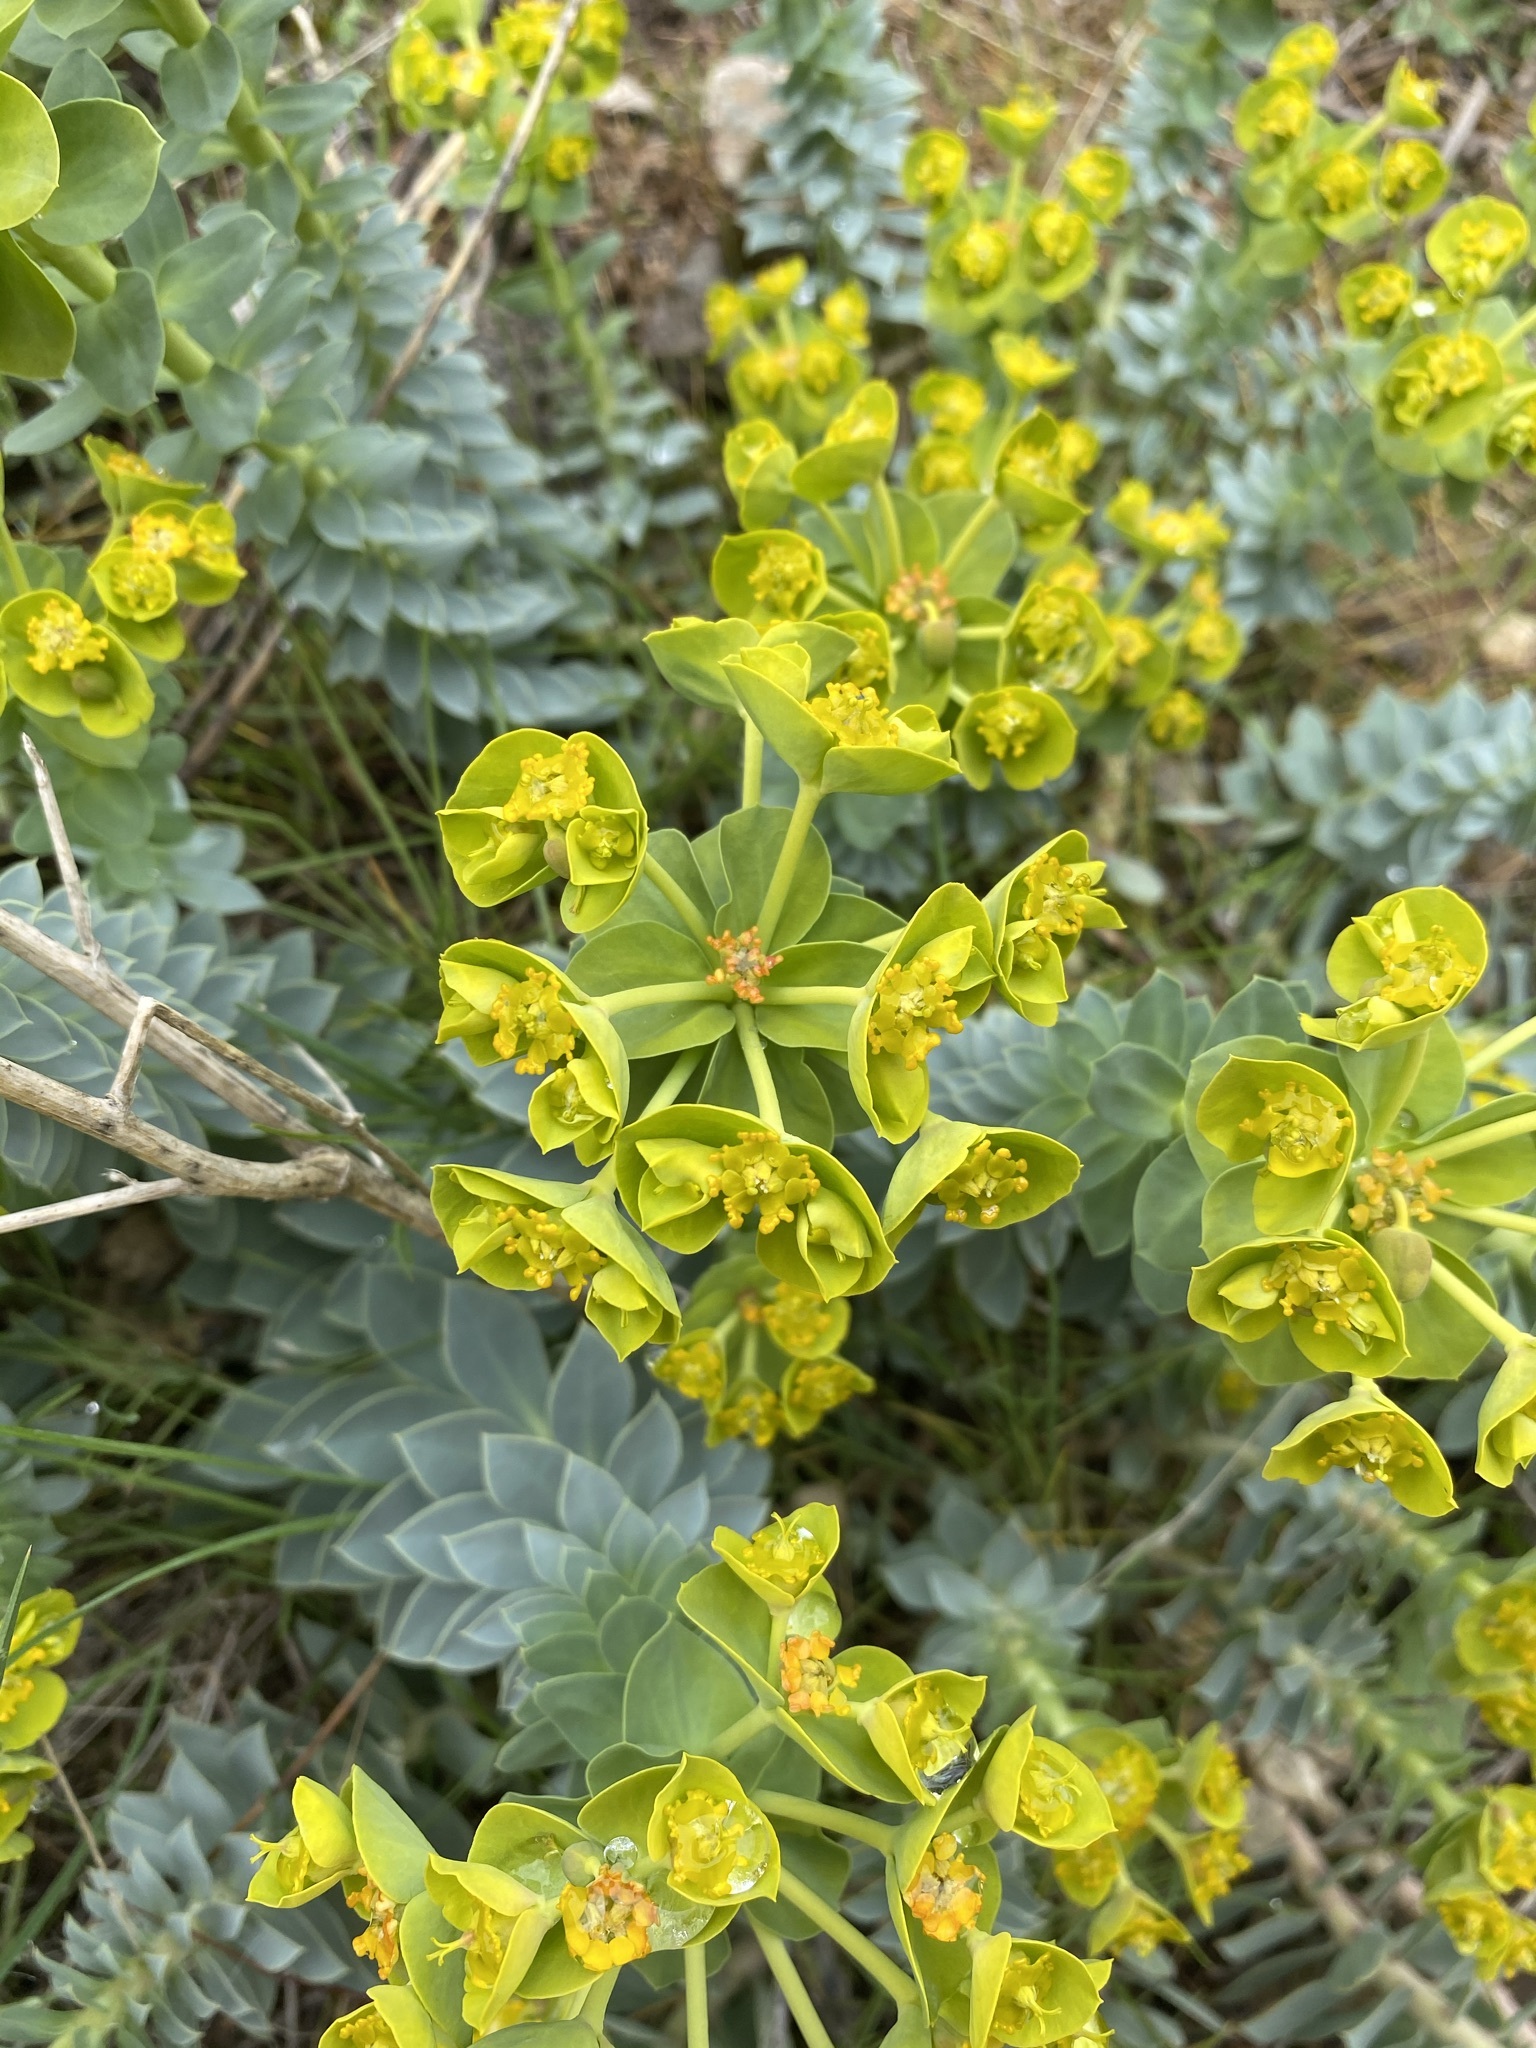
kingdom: Plantae
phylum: Tracheophyta
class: Magnoliopsida
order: Malpighiales
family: Euphorbiaceae
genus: Euphorbia
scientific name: Euphorbia myrsinites
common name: Myrtle spurge
